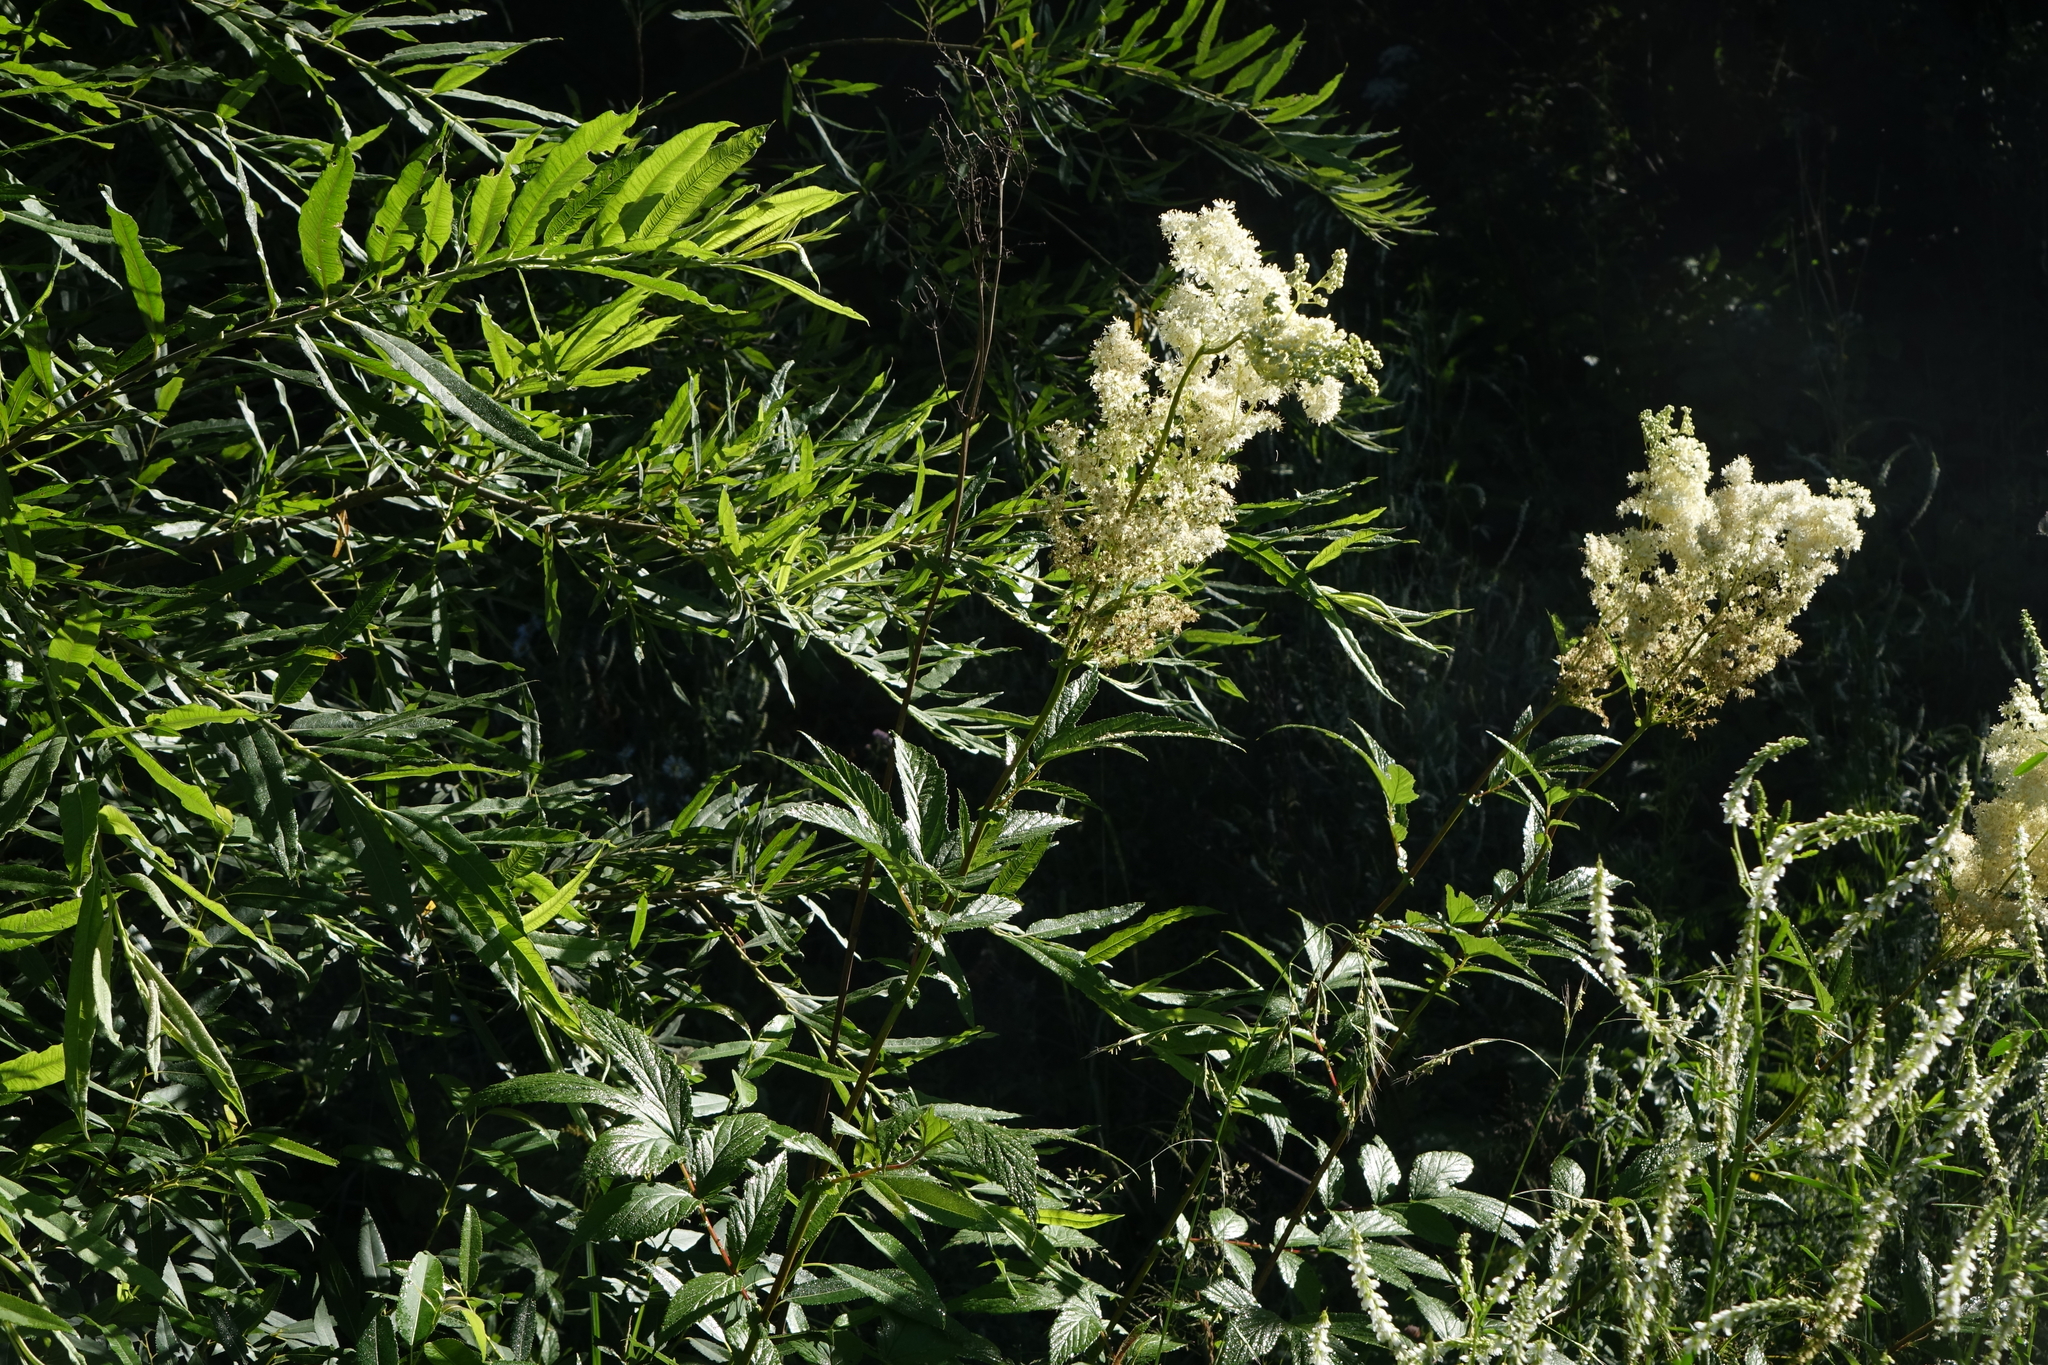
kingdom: Plantae
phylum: Tracheophyta
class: Magnoliopsida
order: Rosales
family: Rosaceae
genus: Filipendula
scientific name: Filipendula ulmaria
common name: Meadowsweet
